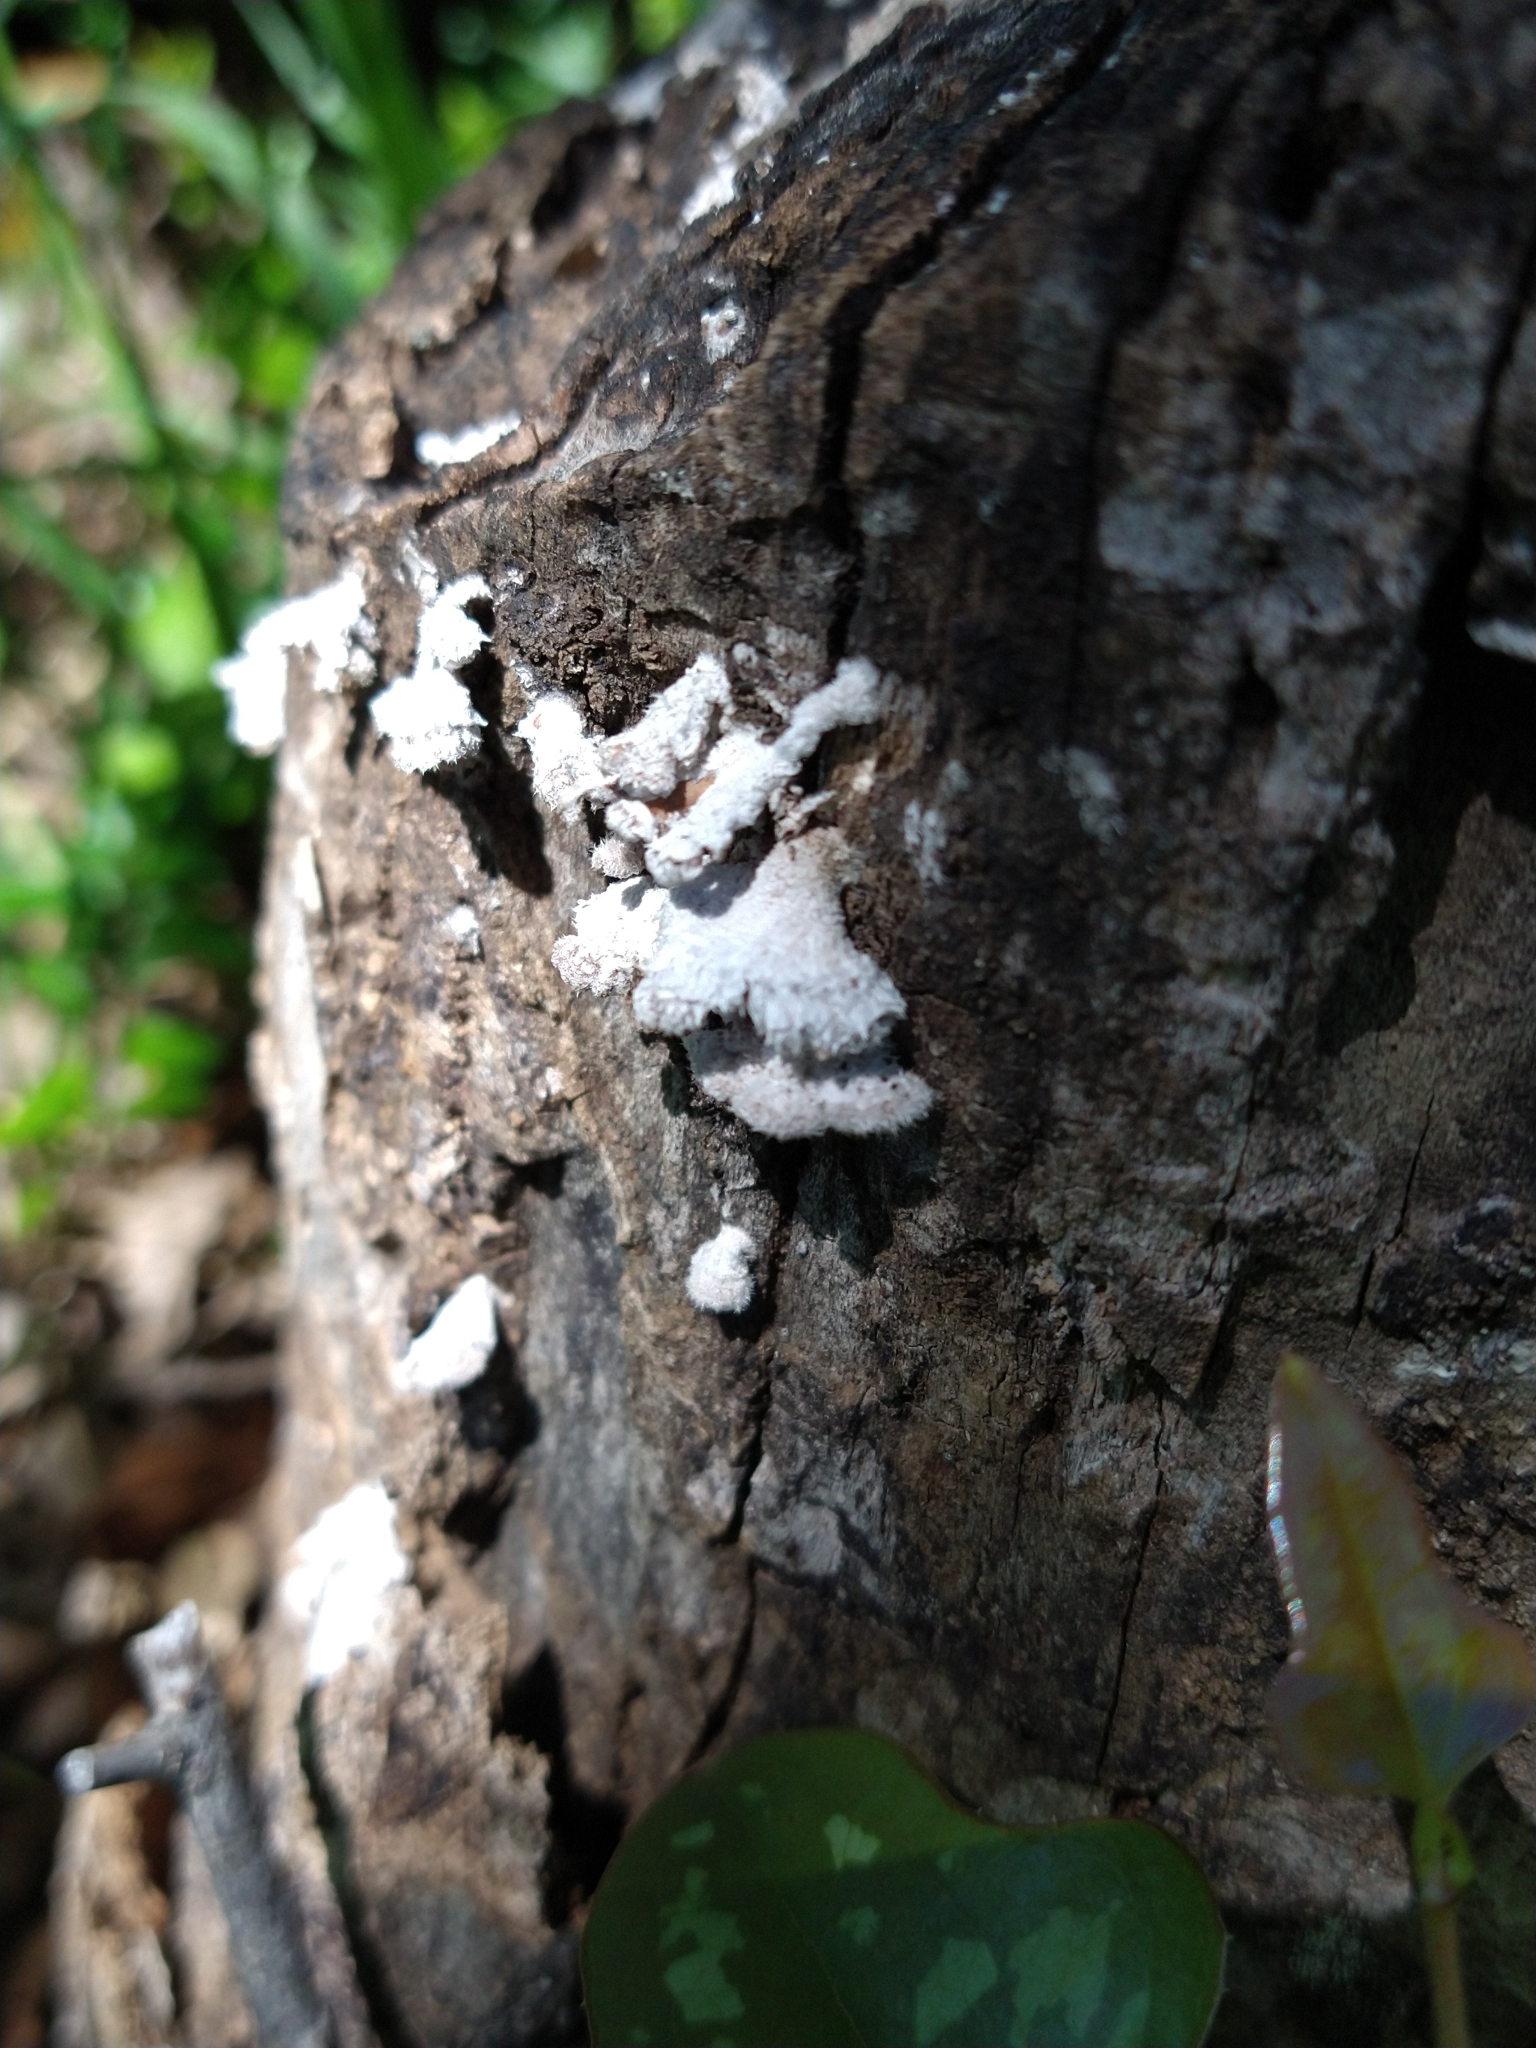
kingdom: Fungi
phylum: Basidiomycota
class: Agaricomycetes
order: Agaricales
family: Schizophyllaceae
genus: Schizophyllum
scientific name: Schizophyllum commune
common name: Common porecrust
